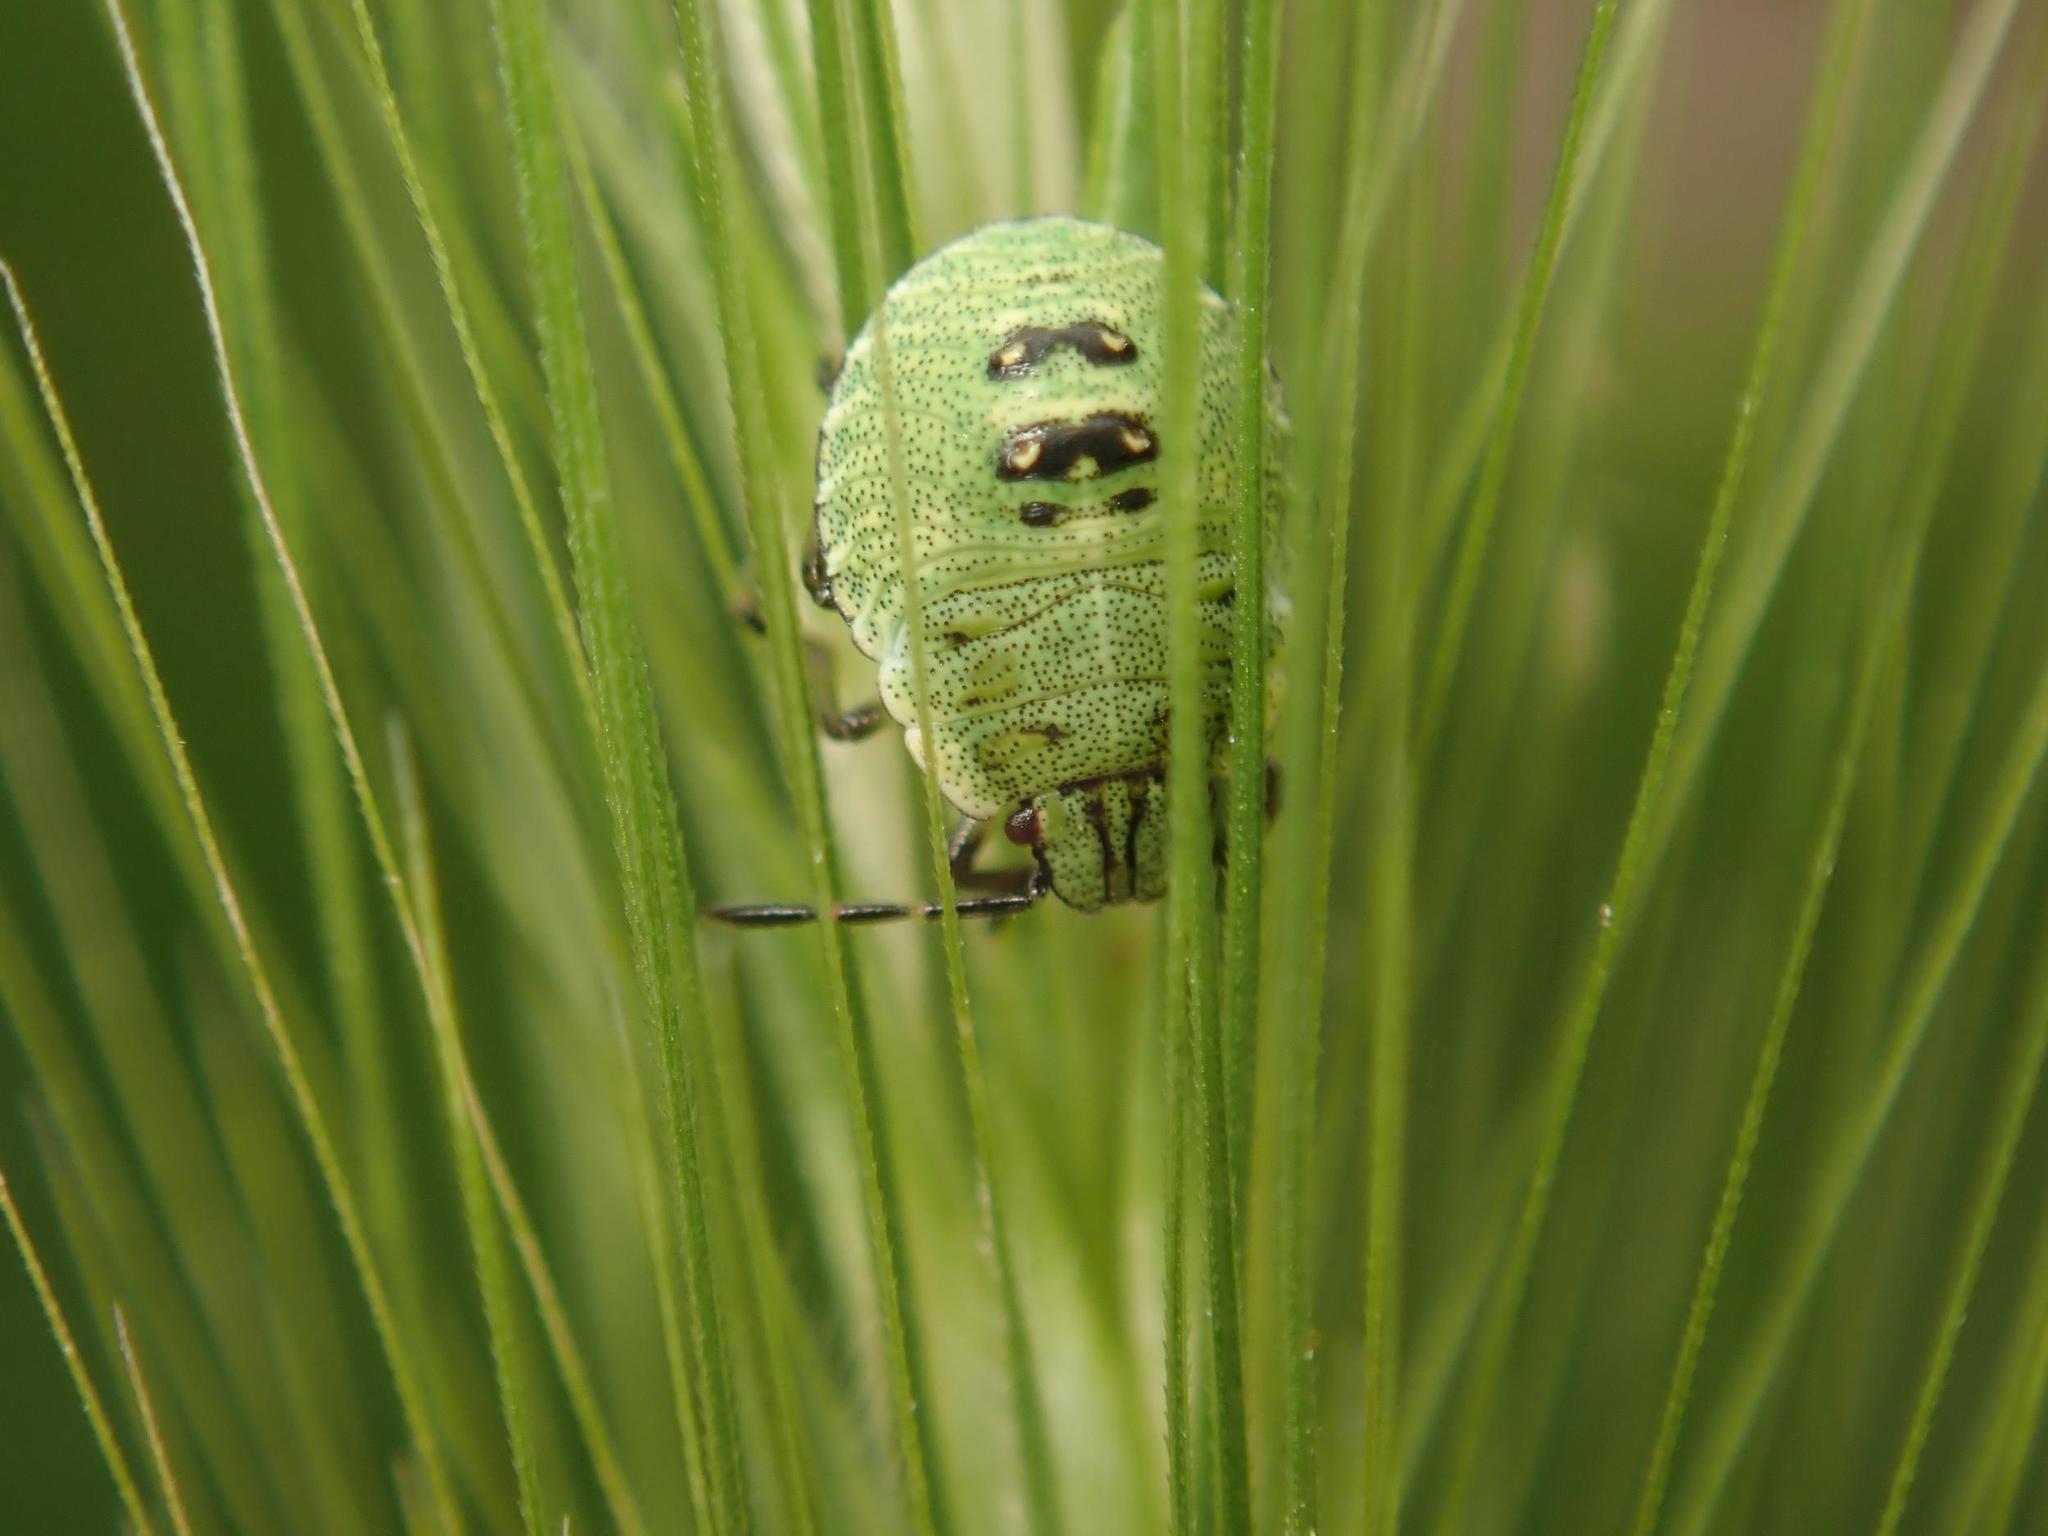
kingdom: Animalia
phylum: Arthropoda
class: Insecta
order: Hemiptera
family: Pentatomidae
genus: Palomena
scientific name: Palomena prasina
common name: Green shieldbug
